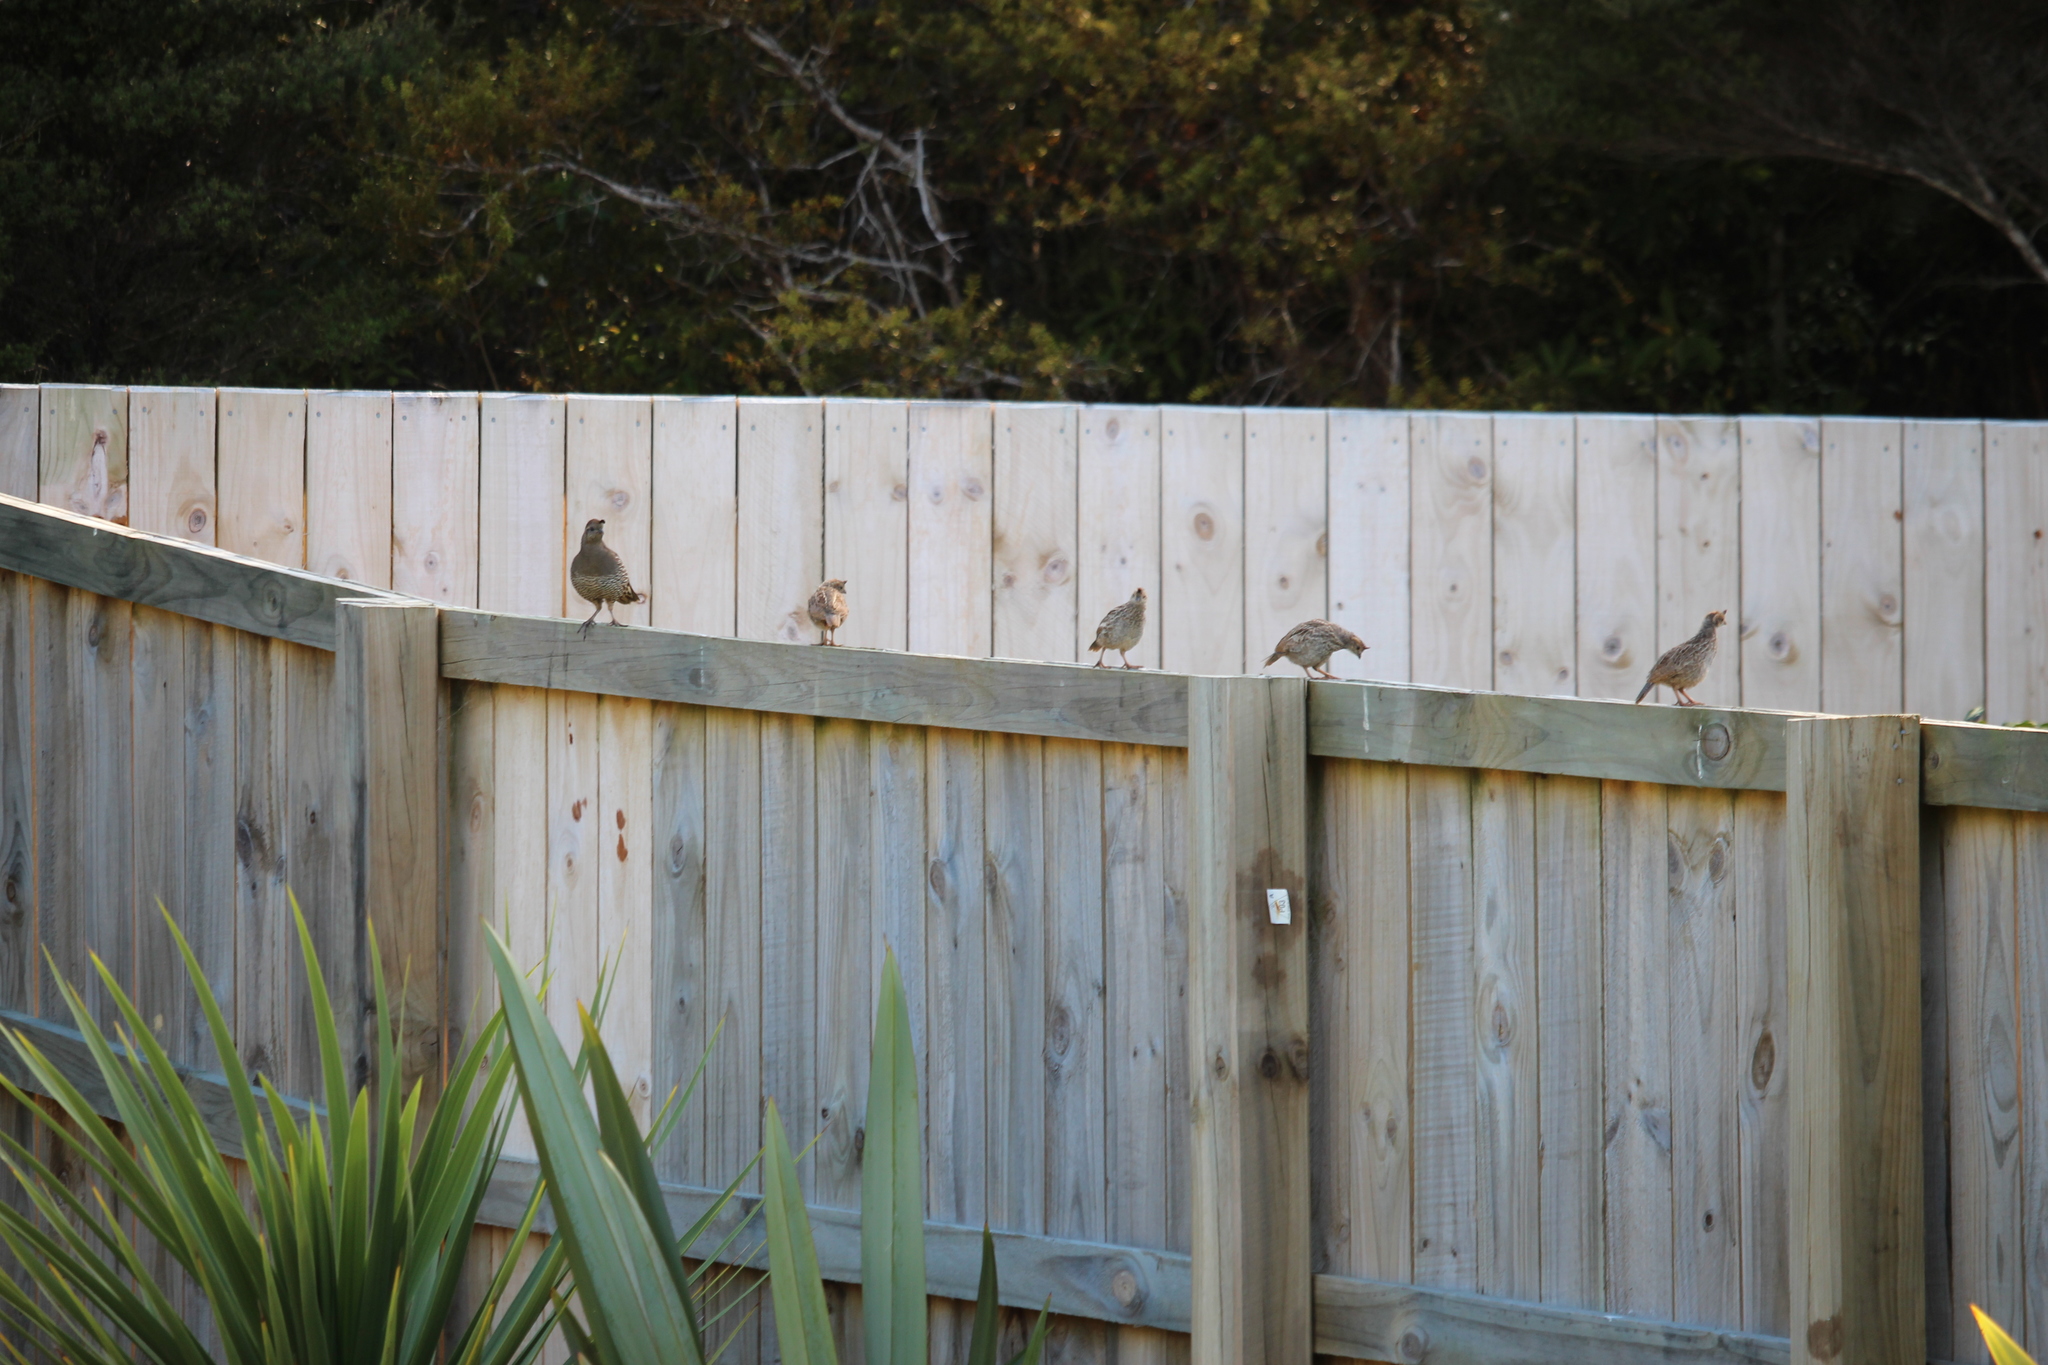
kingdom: Animalia
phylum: Chordata
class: Aves
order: Galliformes
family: Odontophoridae
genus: Callipepla
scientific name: Callipepla californica
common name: California quail
